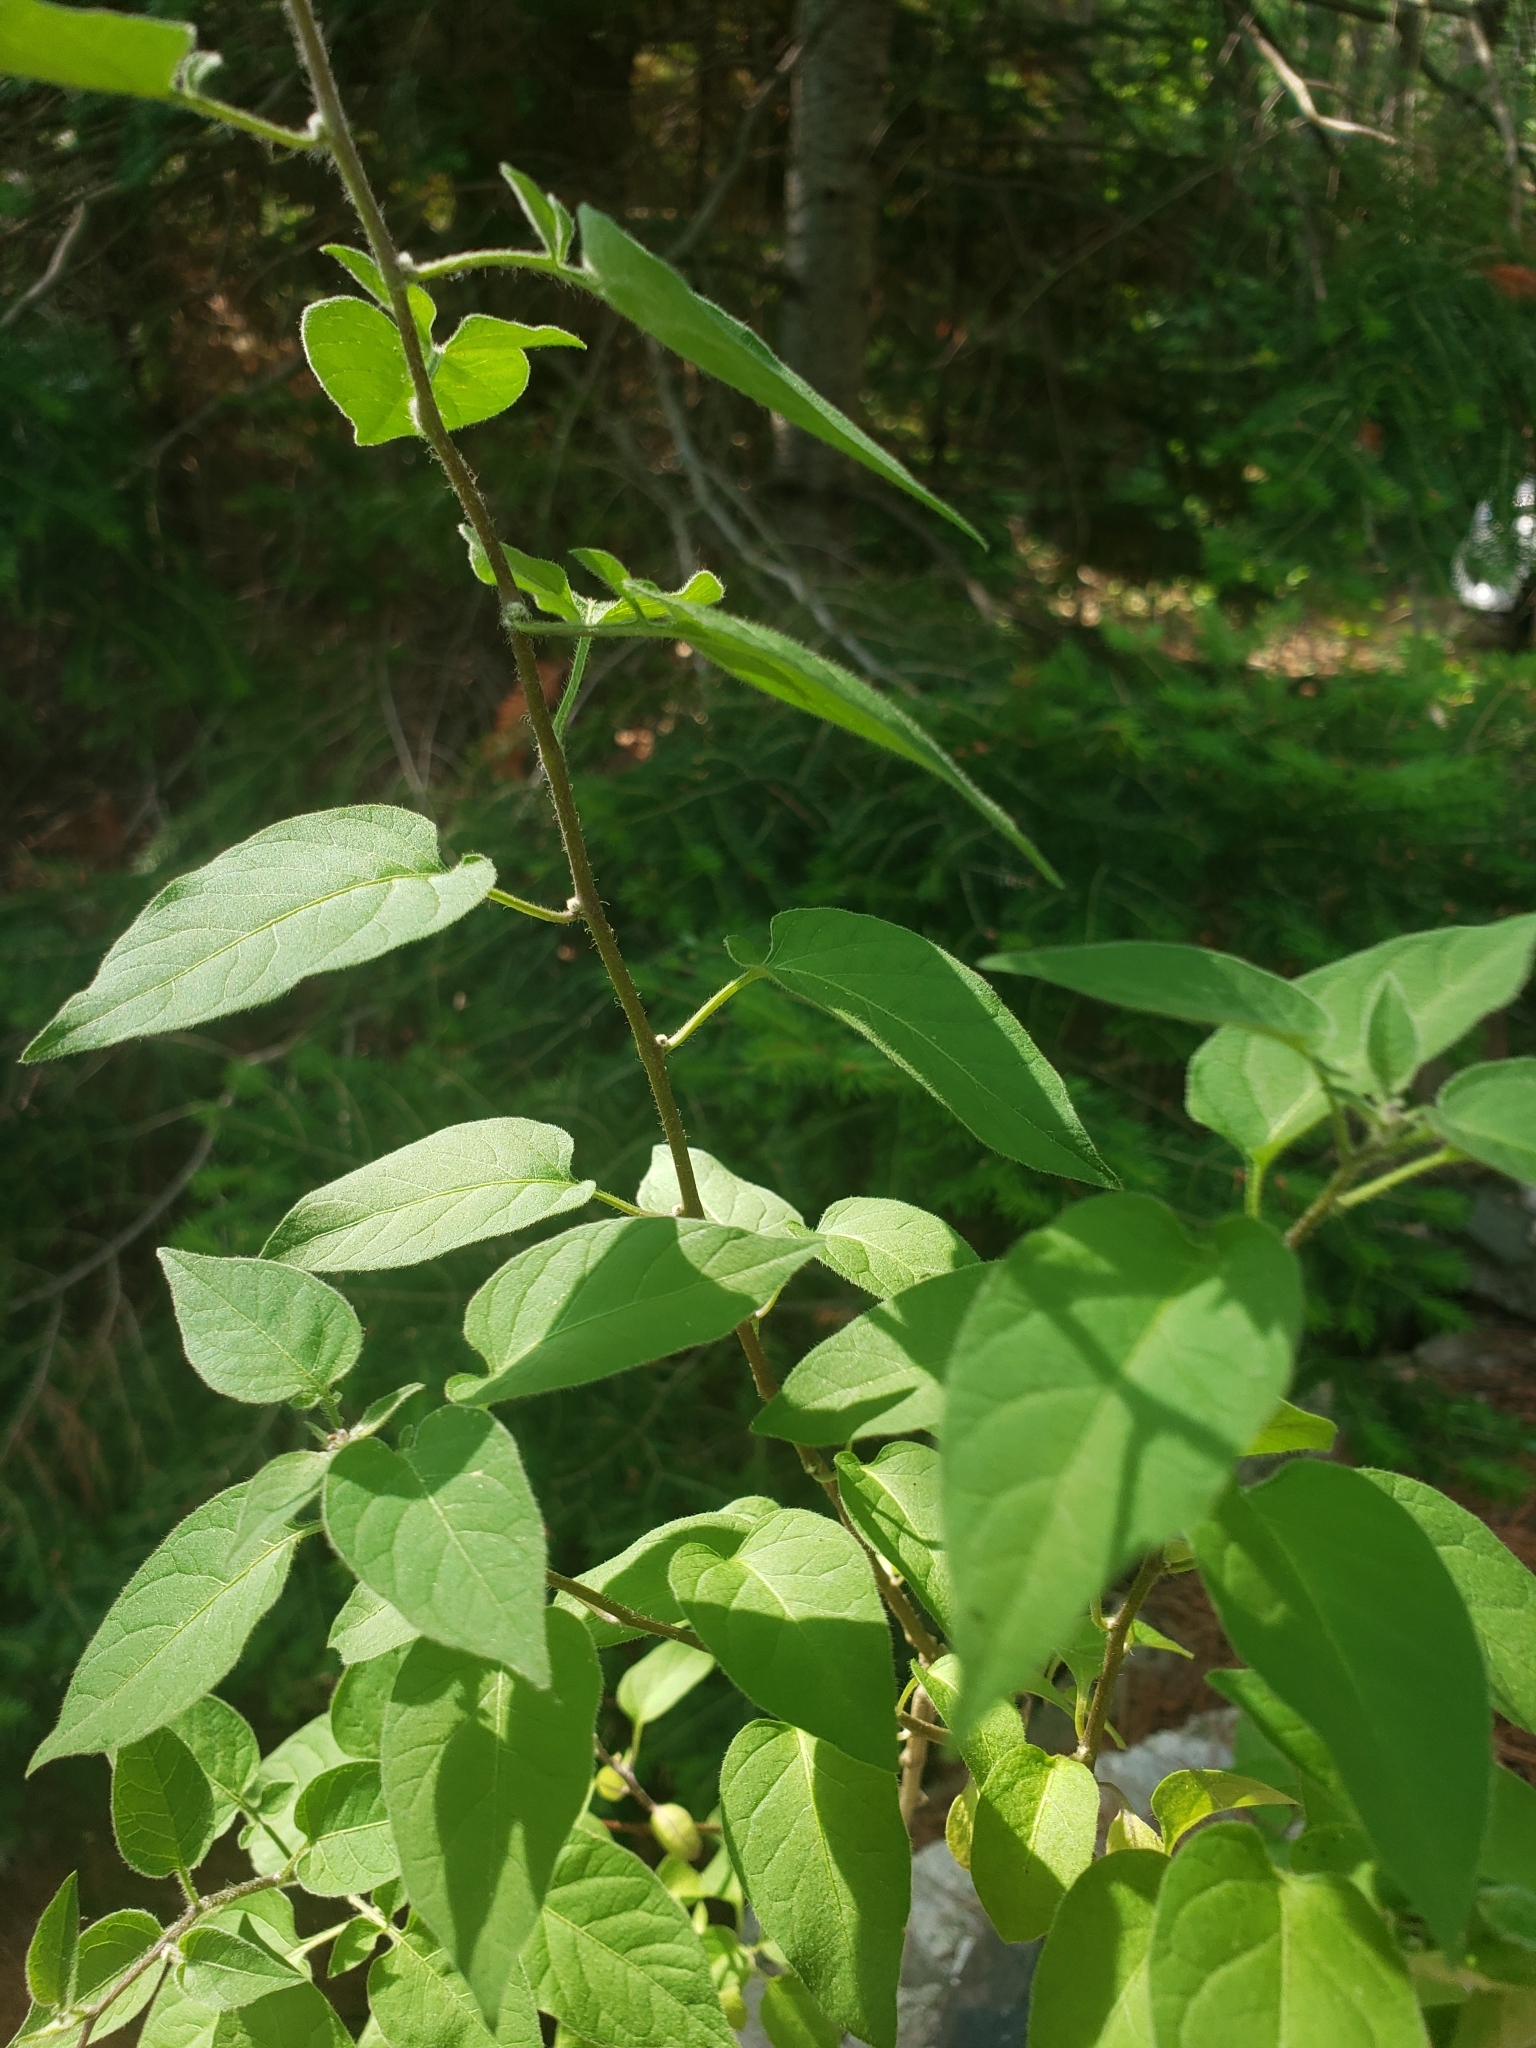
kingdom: Plantae
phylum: Tracheophyta
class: Magnoliopsida
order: Solanales
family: Solanaceae
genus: Solanum
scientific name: Solanum dulcamara
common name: Climbing nightshade
